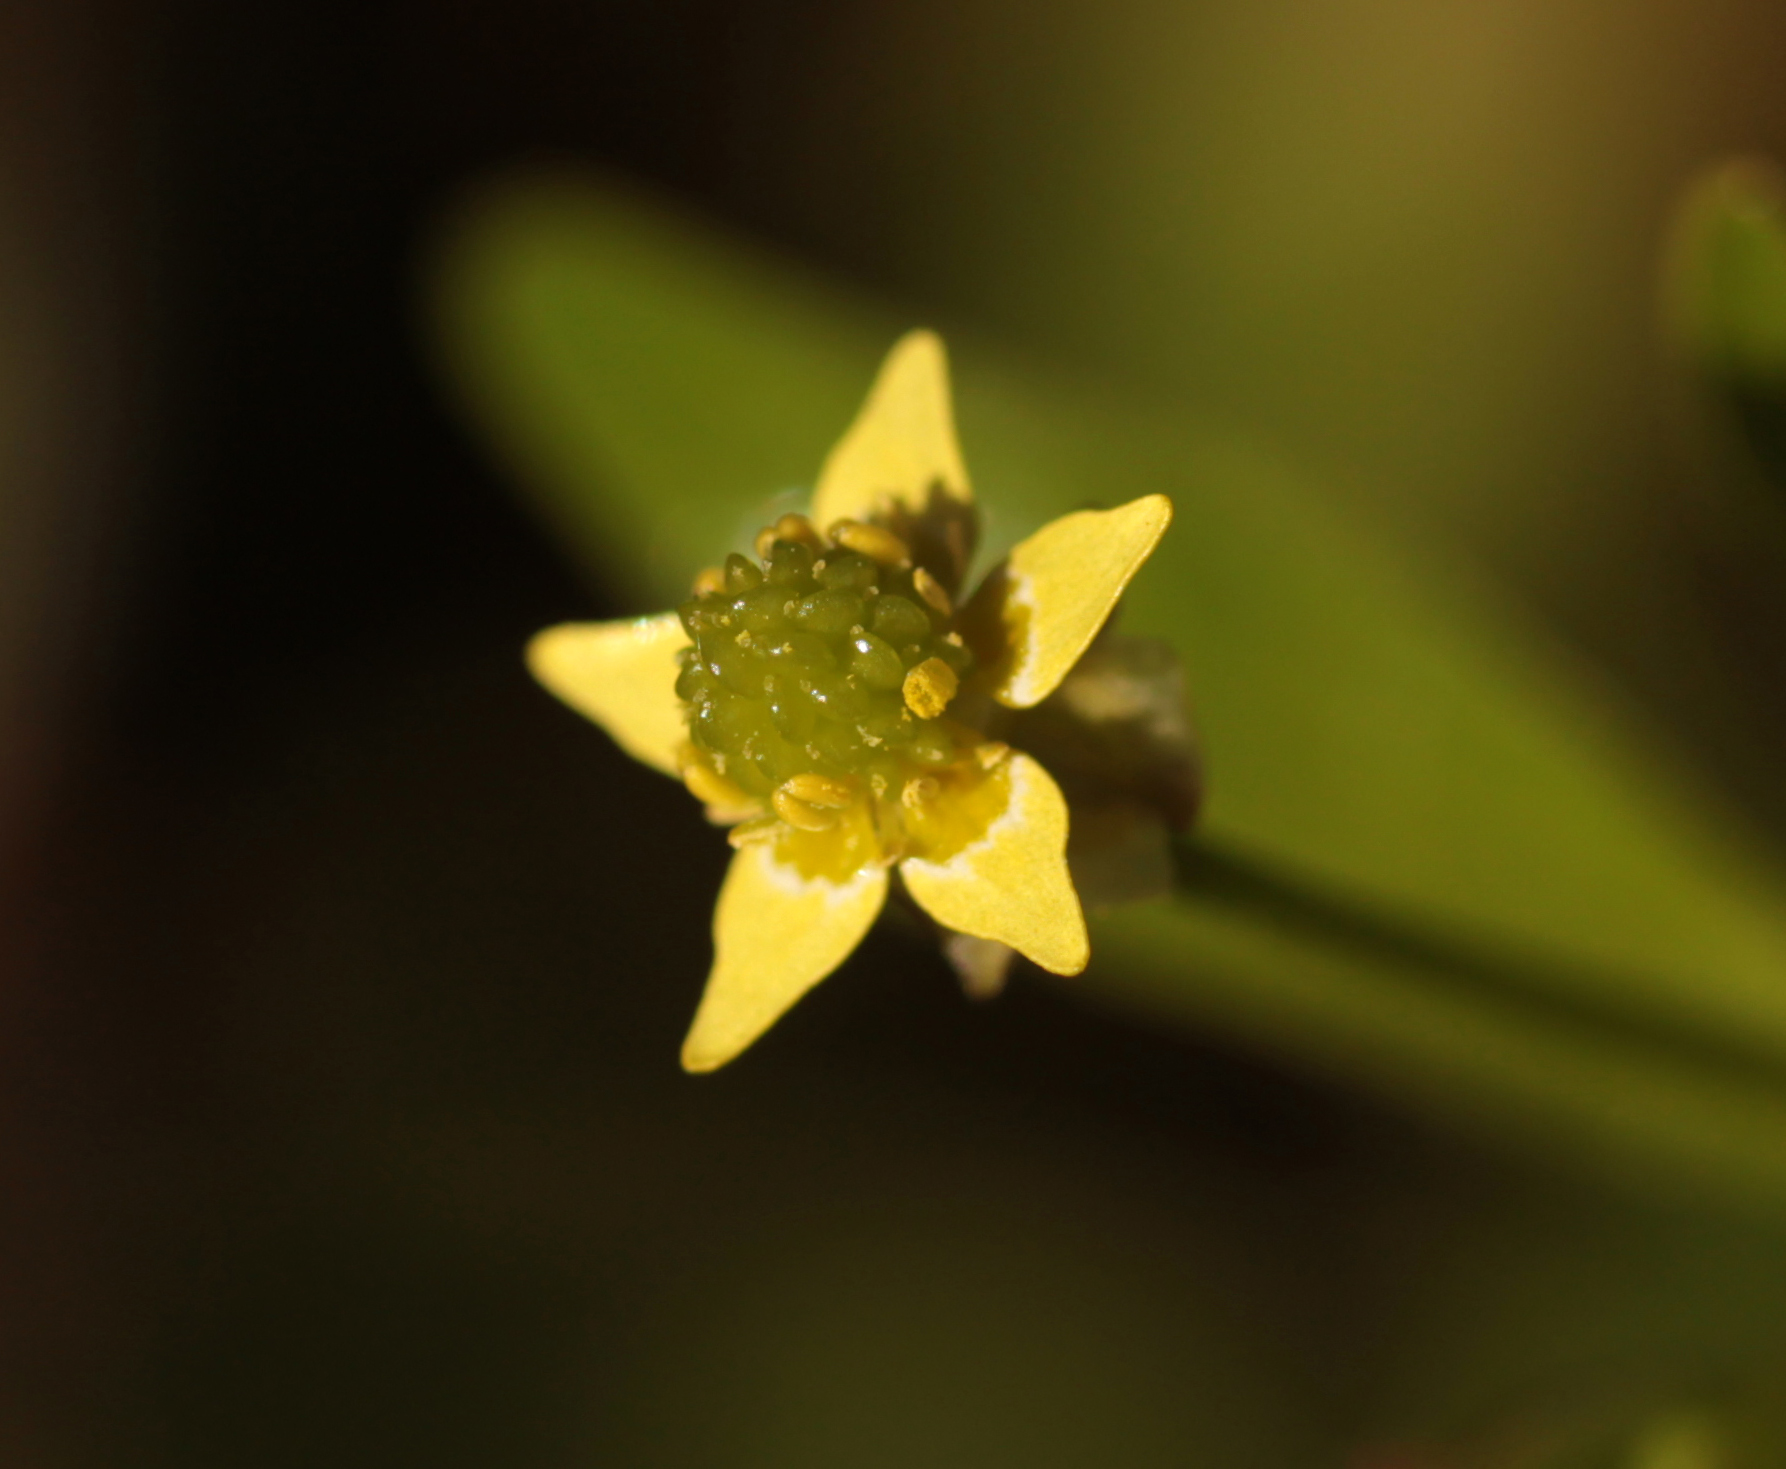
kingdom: Plantae
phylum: Tracheophyta
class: Magnoliopsida
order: Ranunculales
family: Ranunculaceae
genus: Ranunculus
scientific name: Ranunculus abortivus
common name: Early wood buttercup
